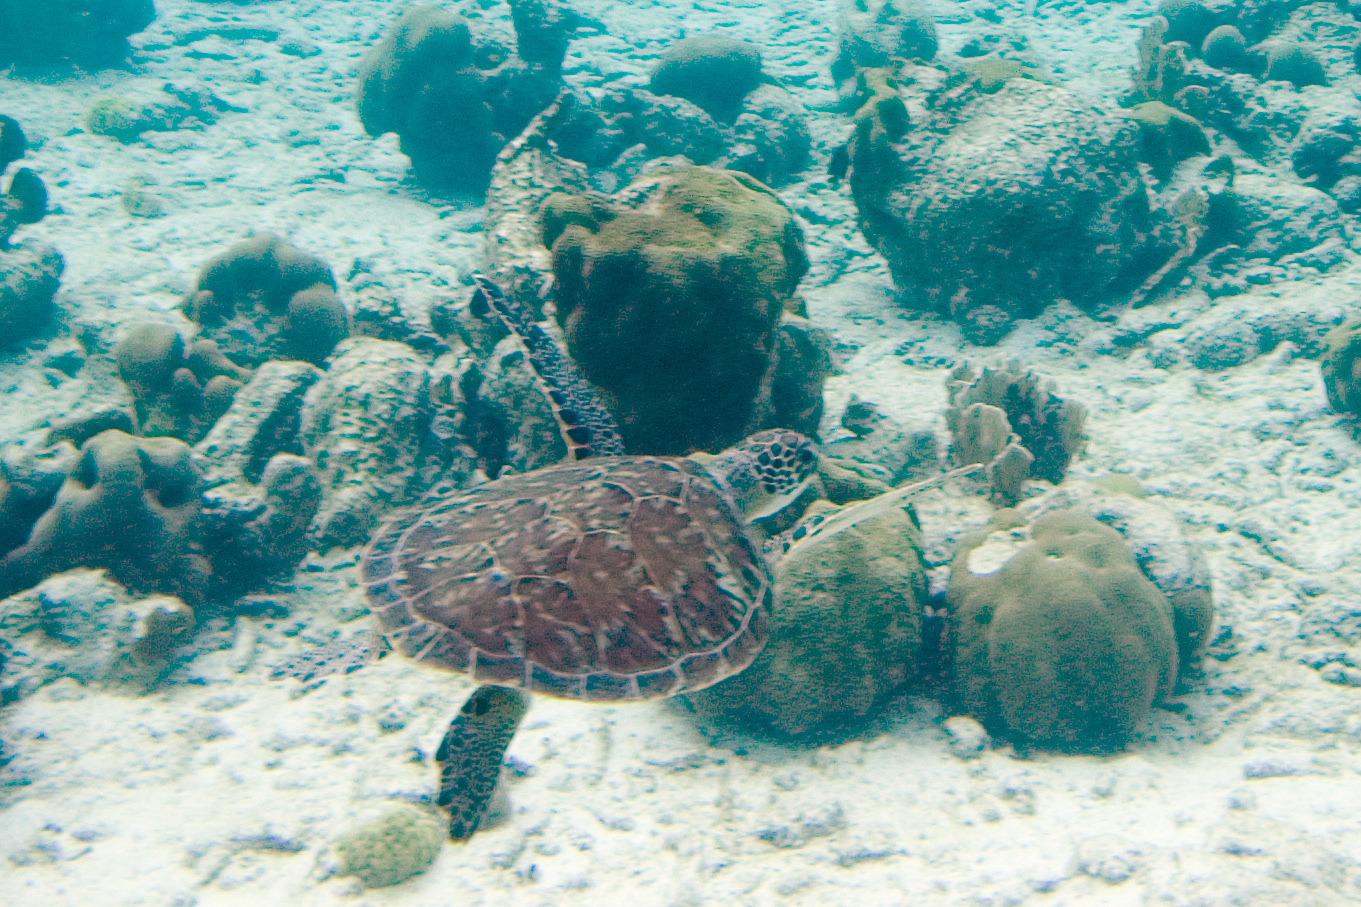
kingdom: Animalia
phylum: Chordata
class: Testudines
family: Cheloniidae
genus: Chelonia
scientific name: Chelonia mydas
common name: Green turtle
